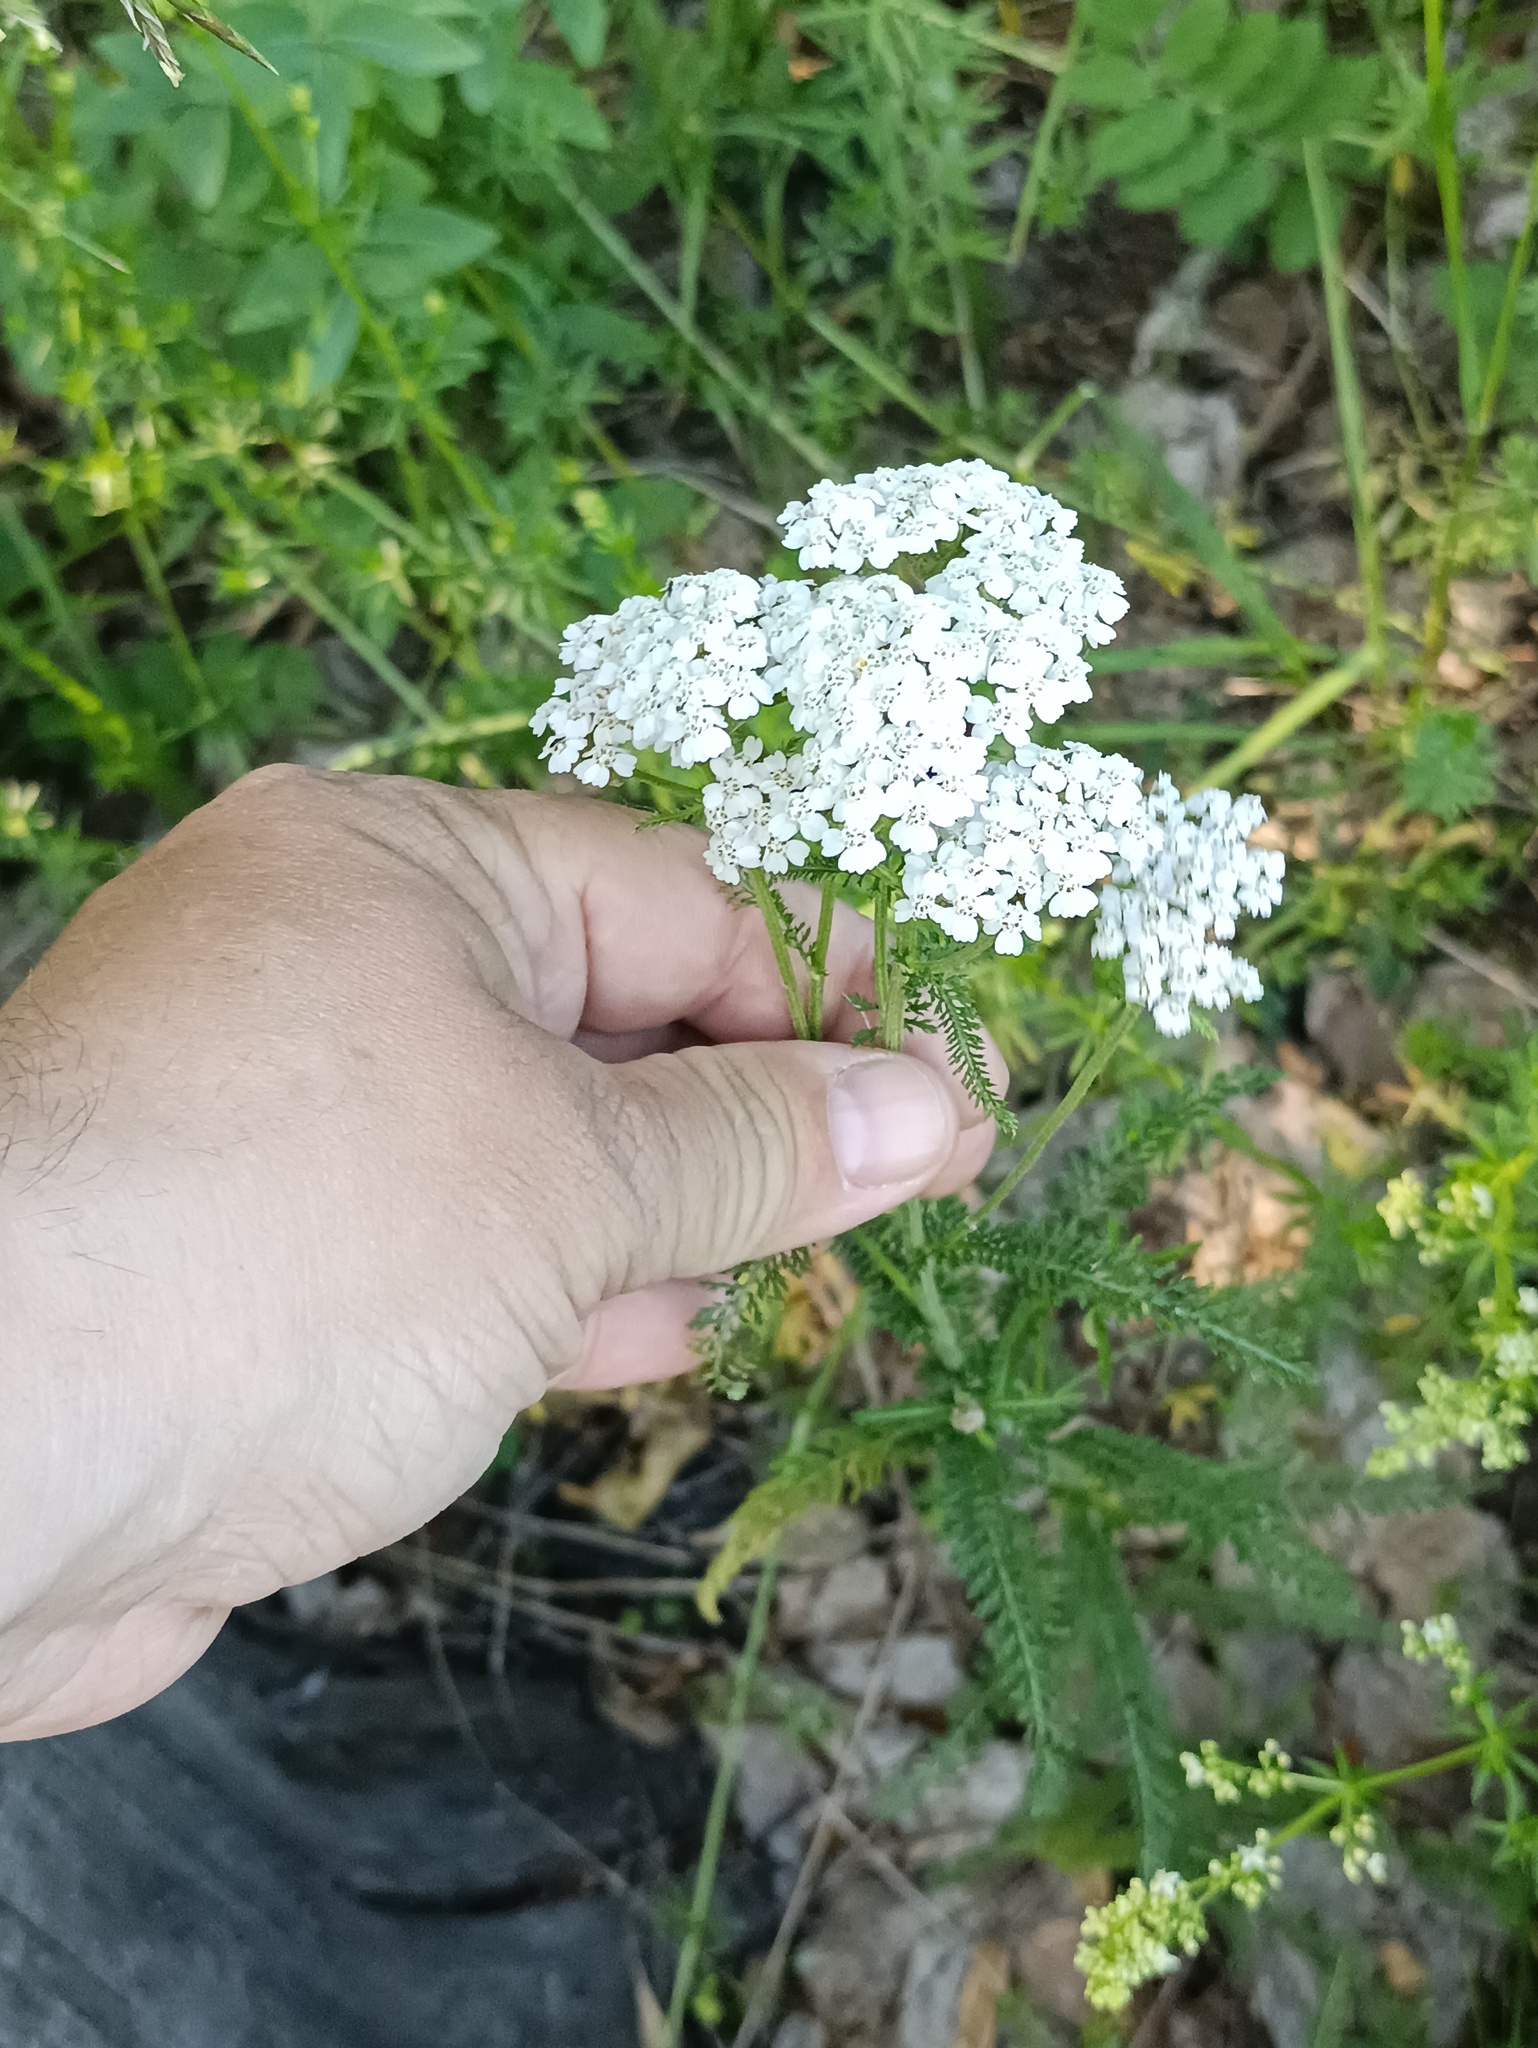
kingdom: Plantae
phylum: Tracheophyta
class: Magnoliopsida
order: Asterales
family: Asteraceae
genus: Achillea
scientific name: Achillea millefolium
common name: Yarrow
